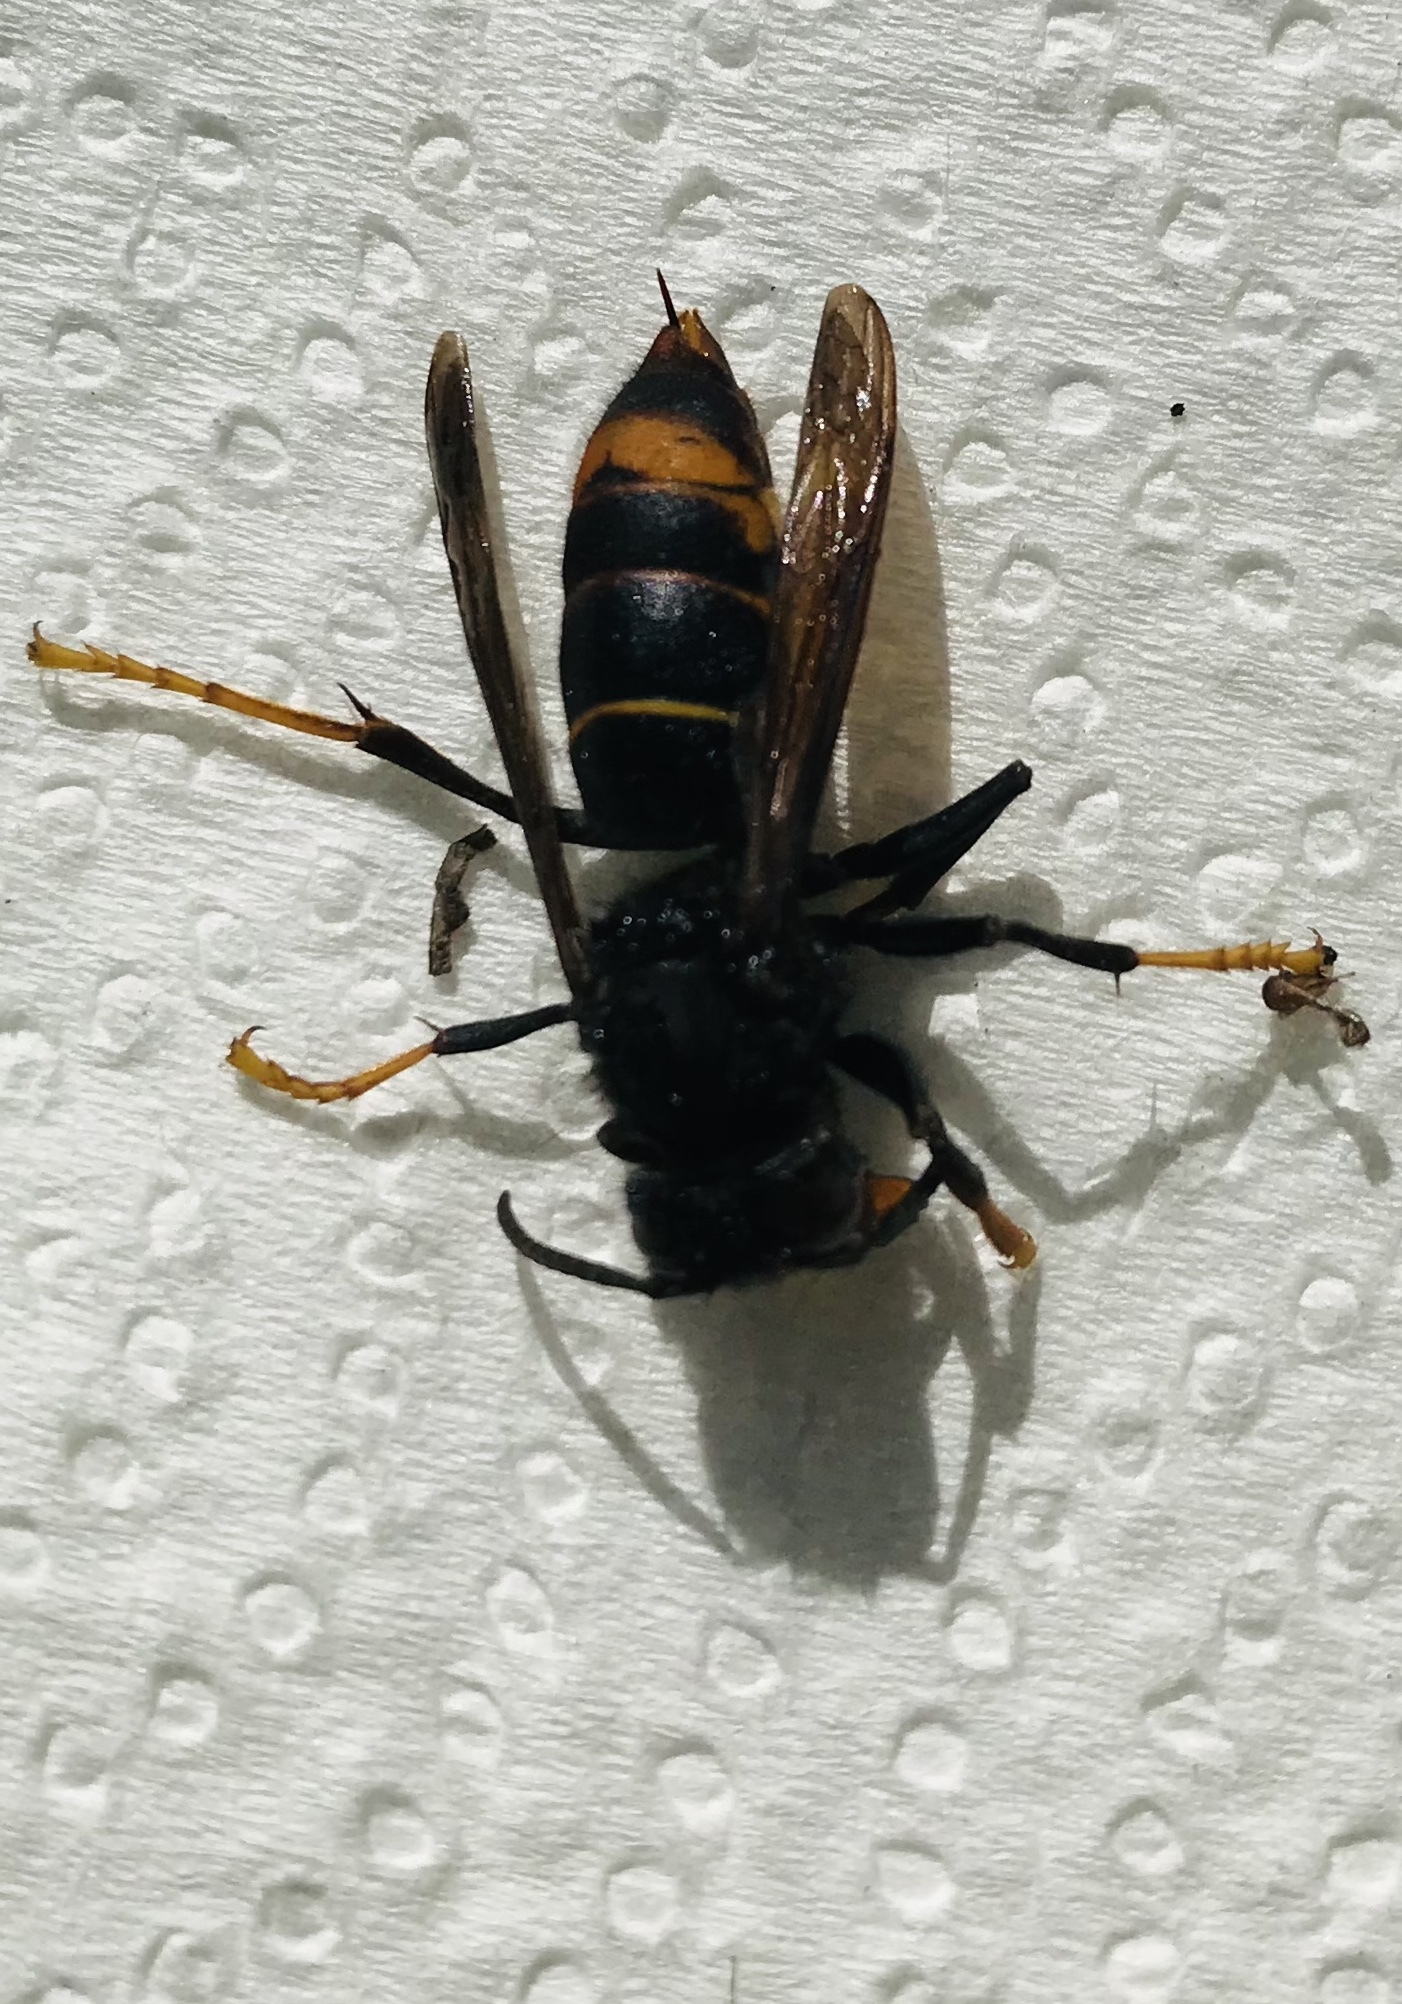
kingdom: Animalia
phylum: Arthropoda
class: Insecta
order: Hymenoptera
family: Vespidae
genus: Vespa
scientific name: Vespa velutina
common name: Asian hornet
